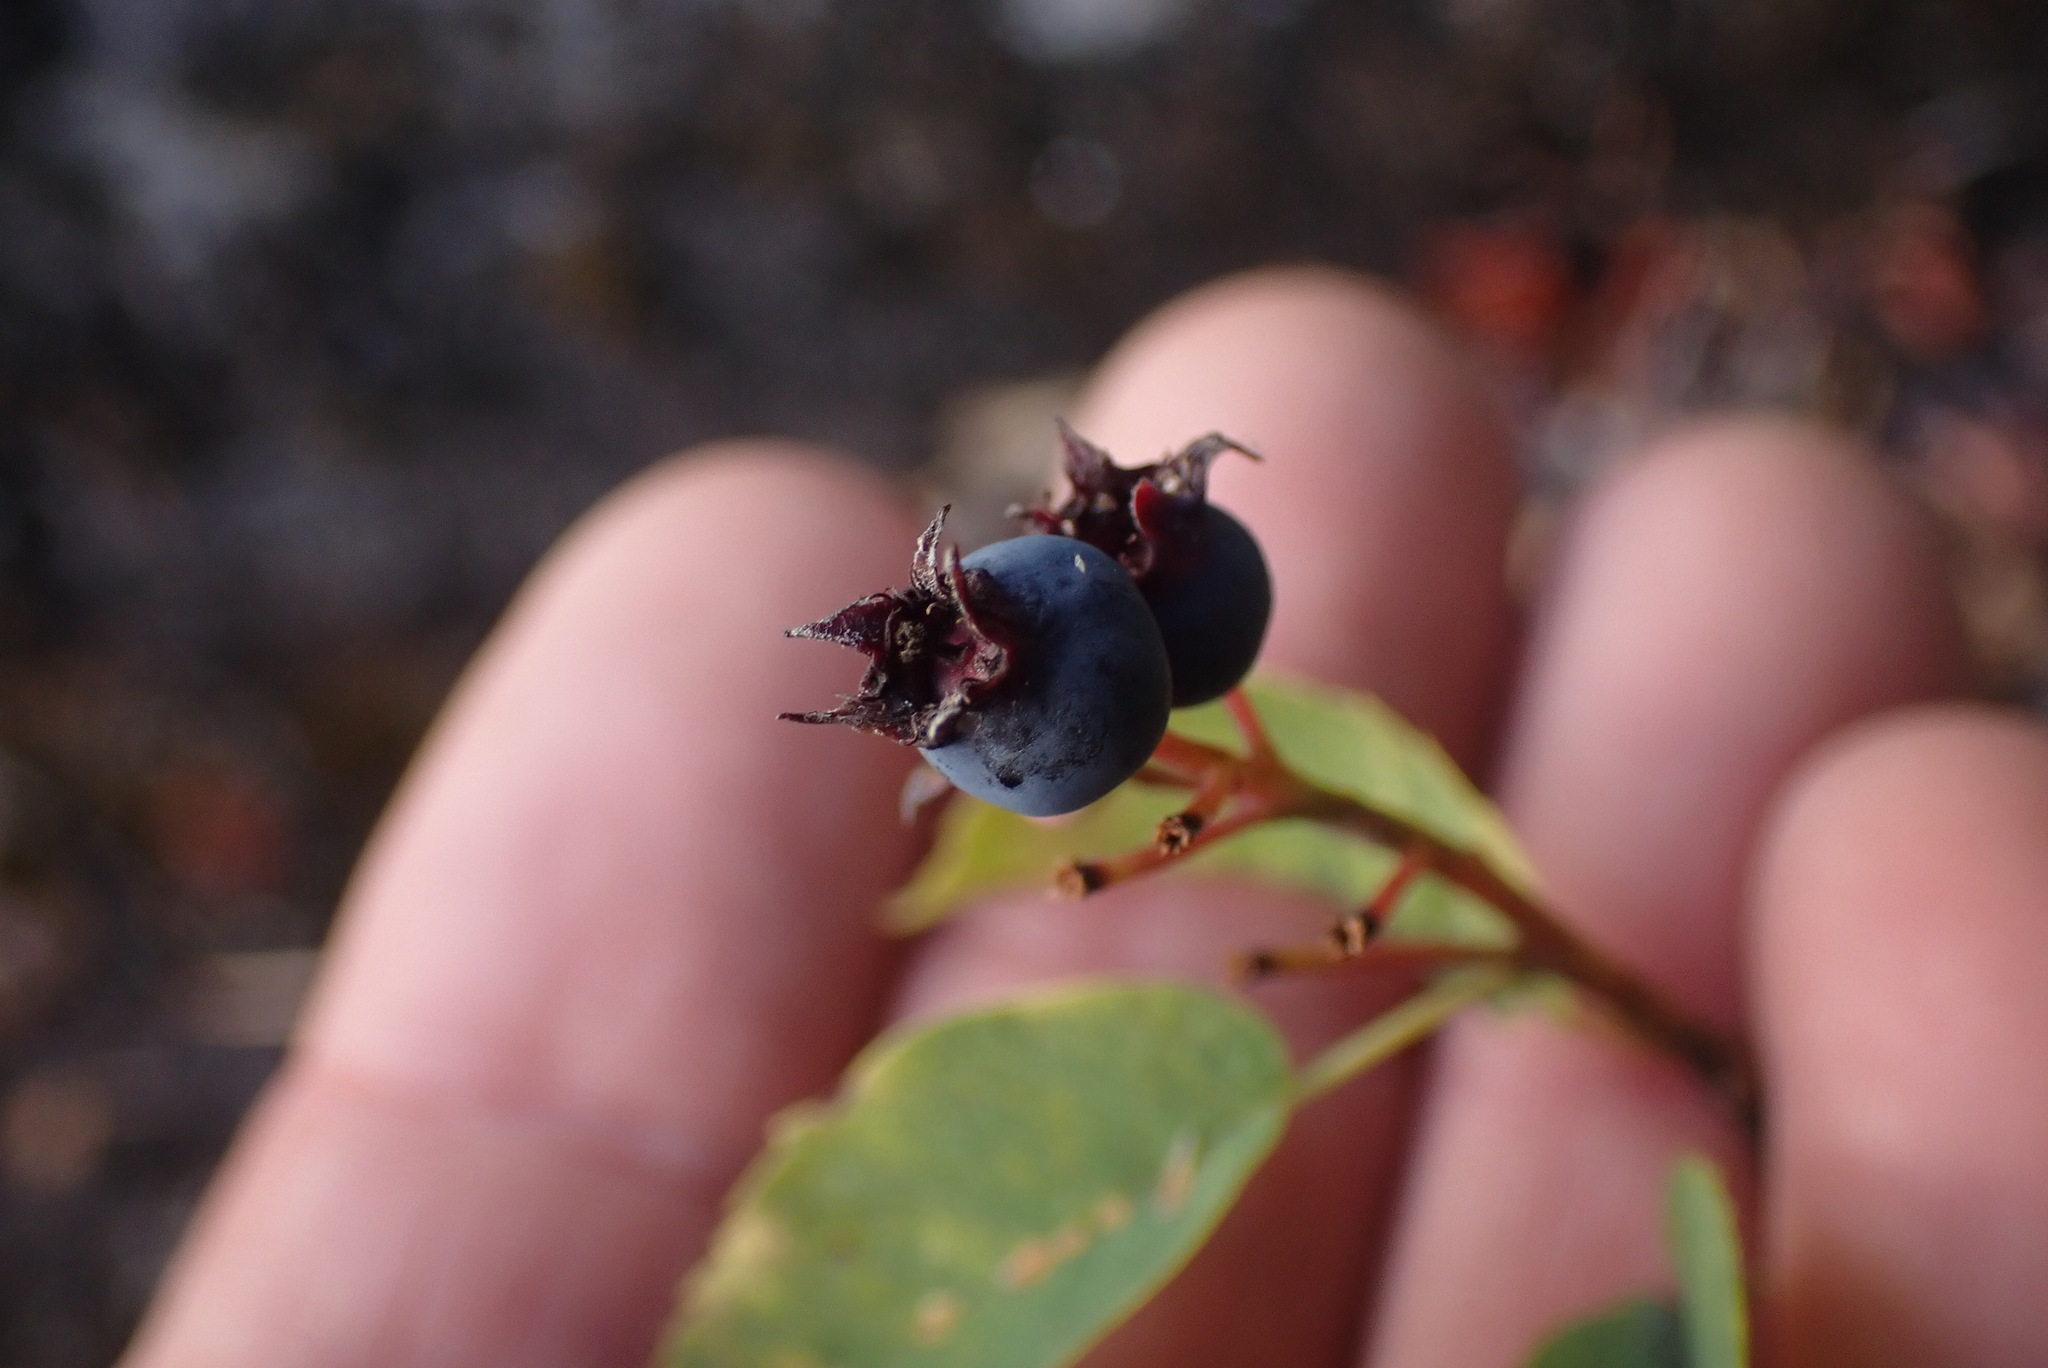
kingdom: Plantae
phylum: Tracheophyta
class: Magnoliopsida
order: Rosales
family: Rosaceae
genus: Amelanchier
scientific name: Amelanchier alnifolia
